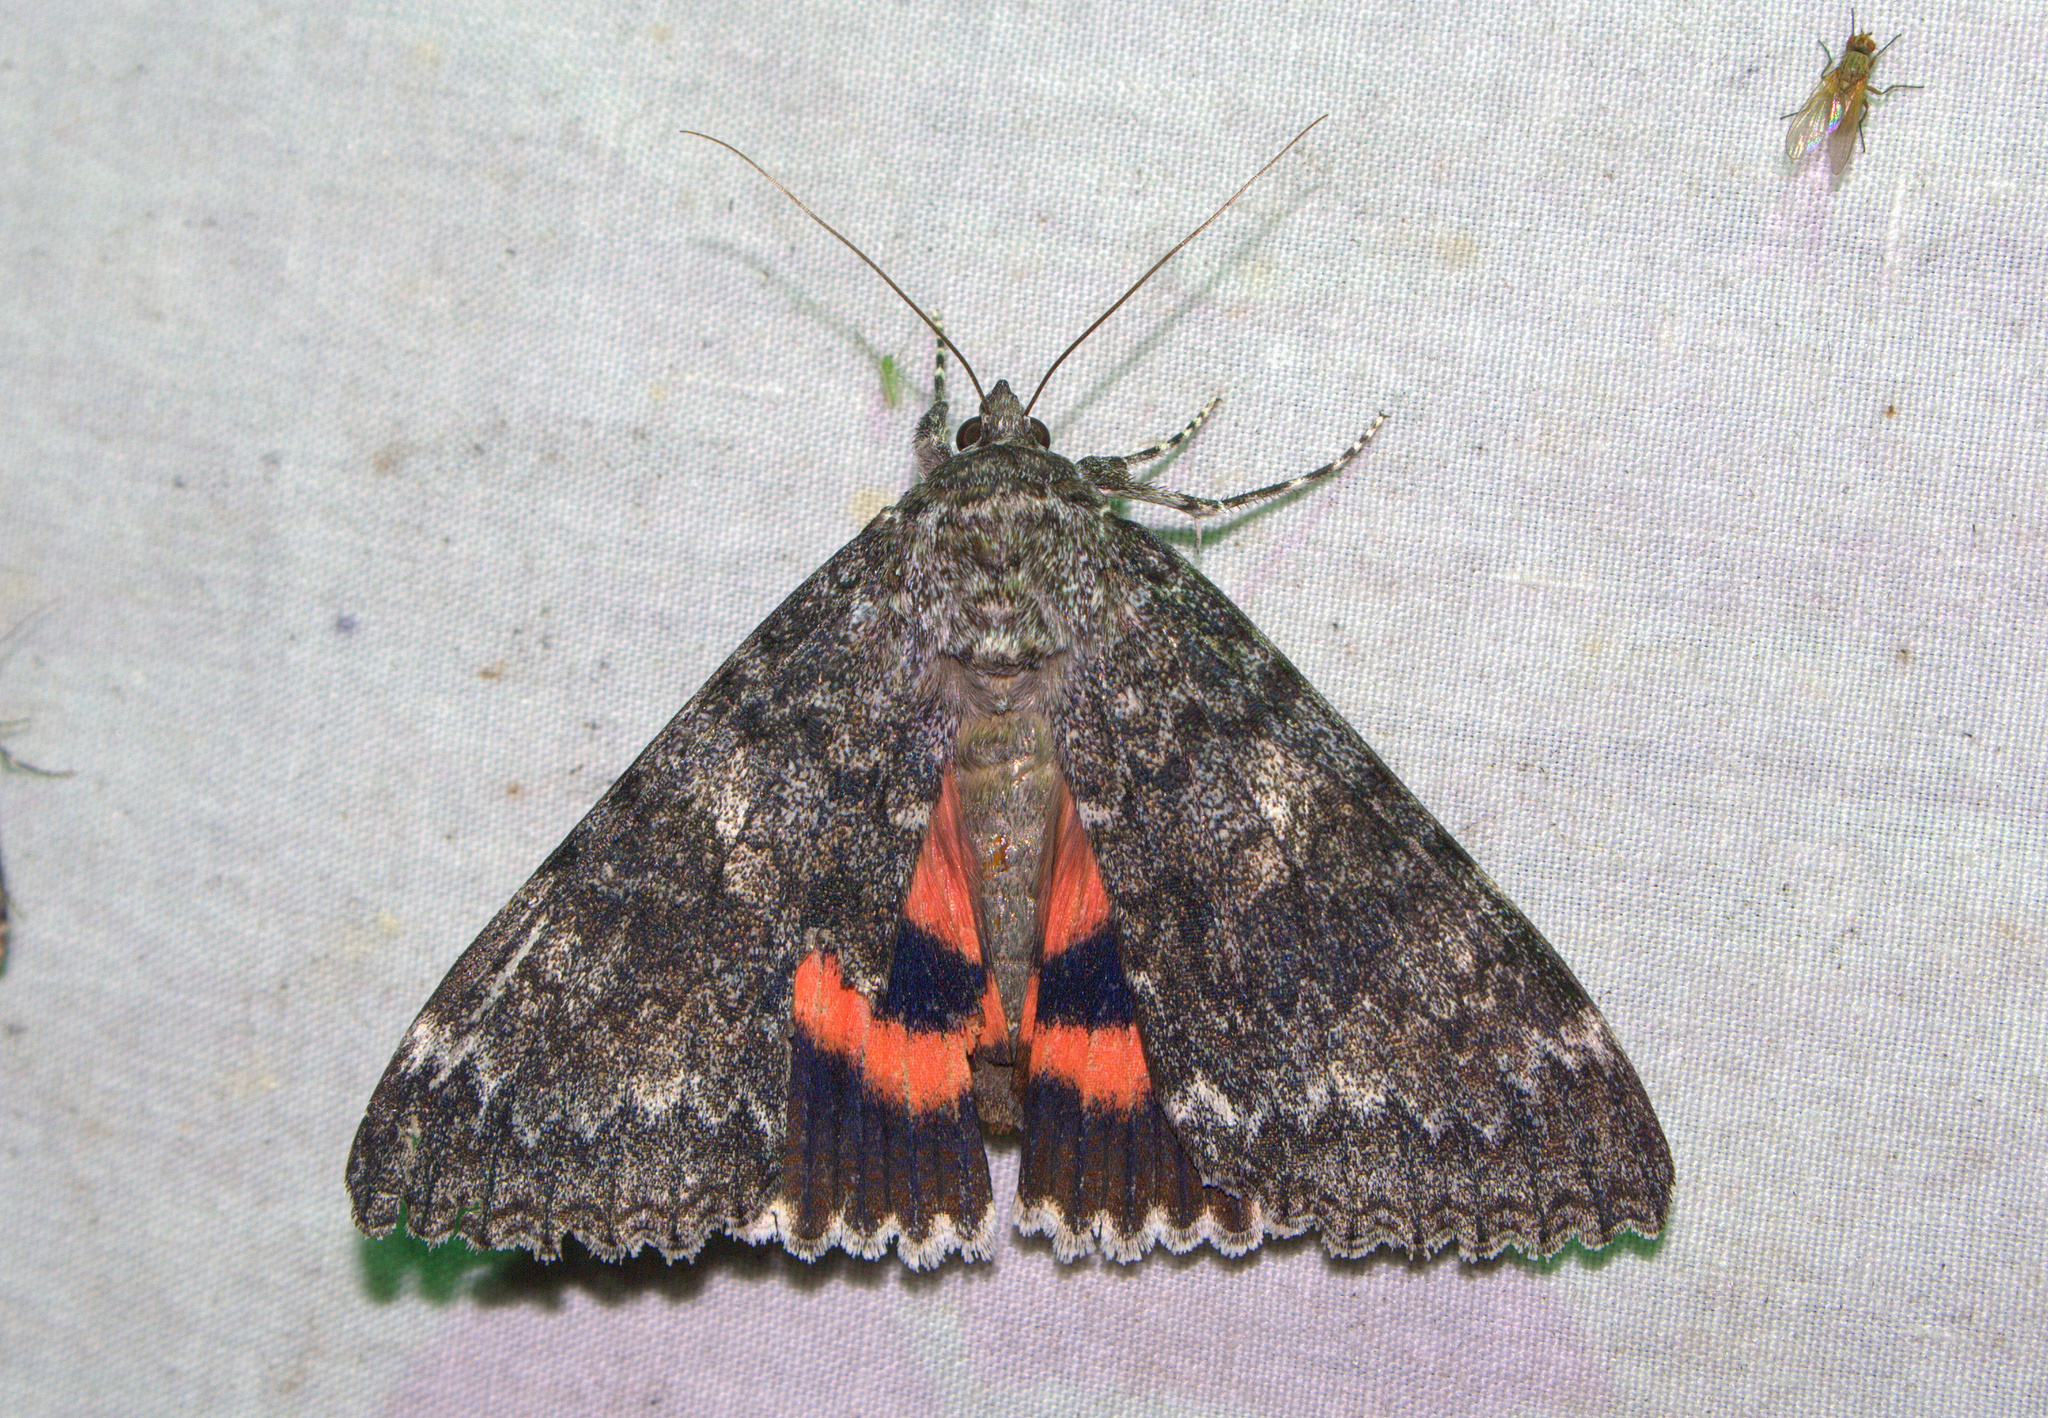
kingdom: Animalia
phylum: Arthropoda
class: Insecta
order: Lepidoptera
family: Erebidae
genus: Catocala
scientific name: Catocala unijuga
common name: Once-married underwing
